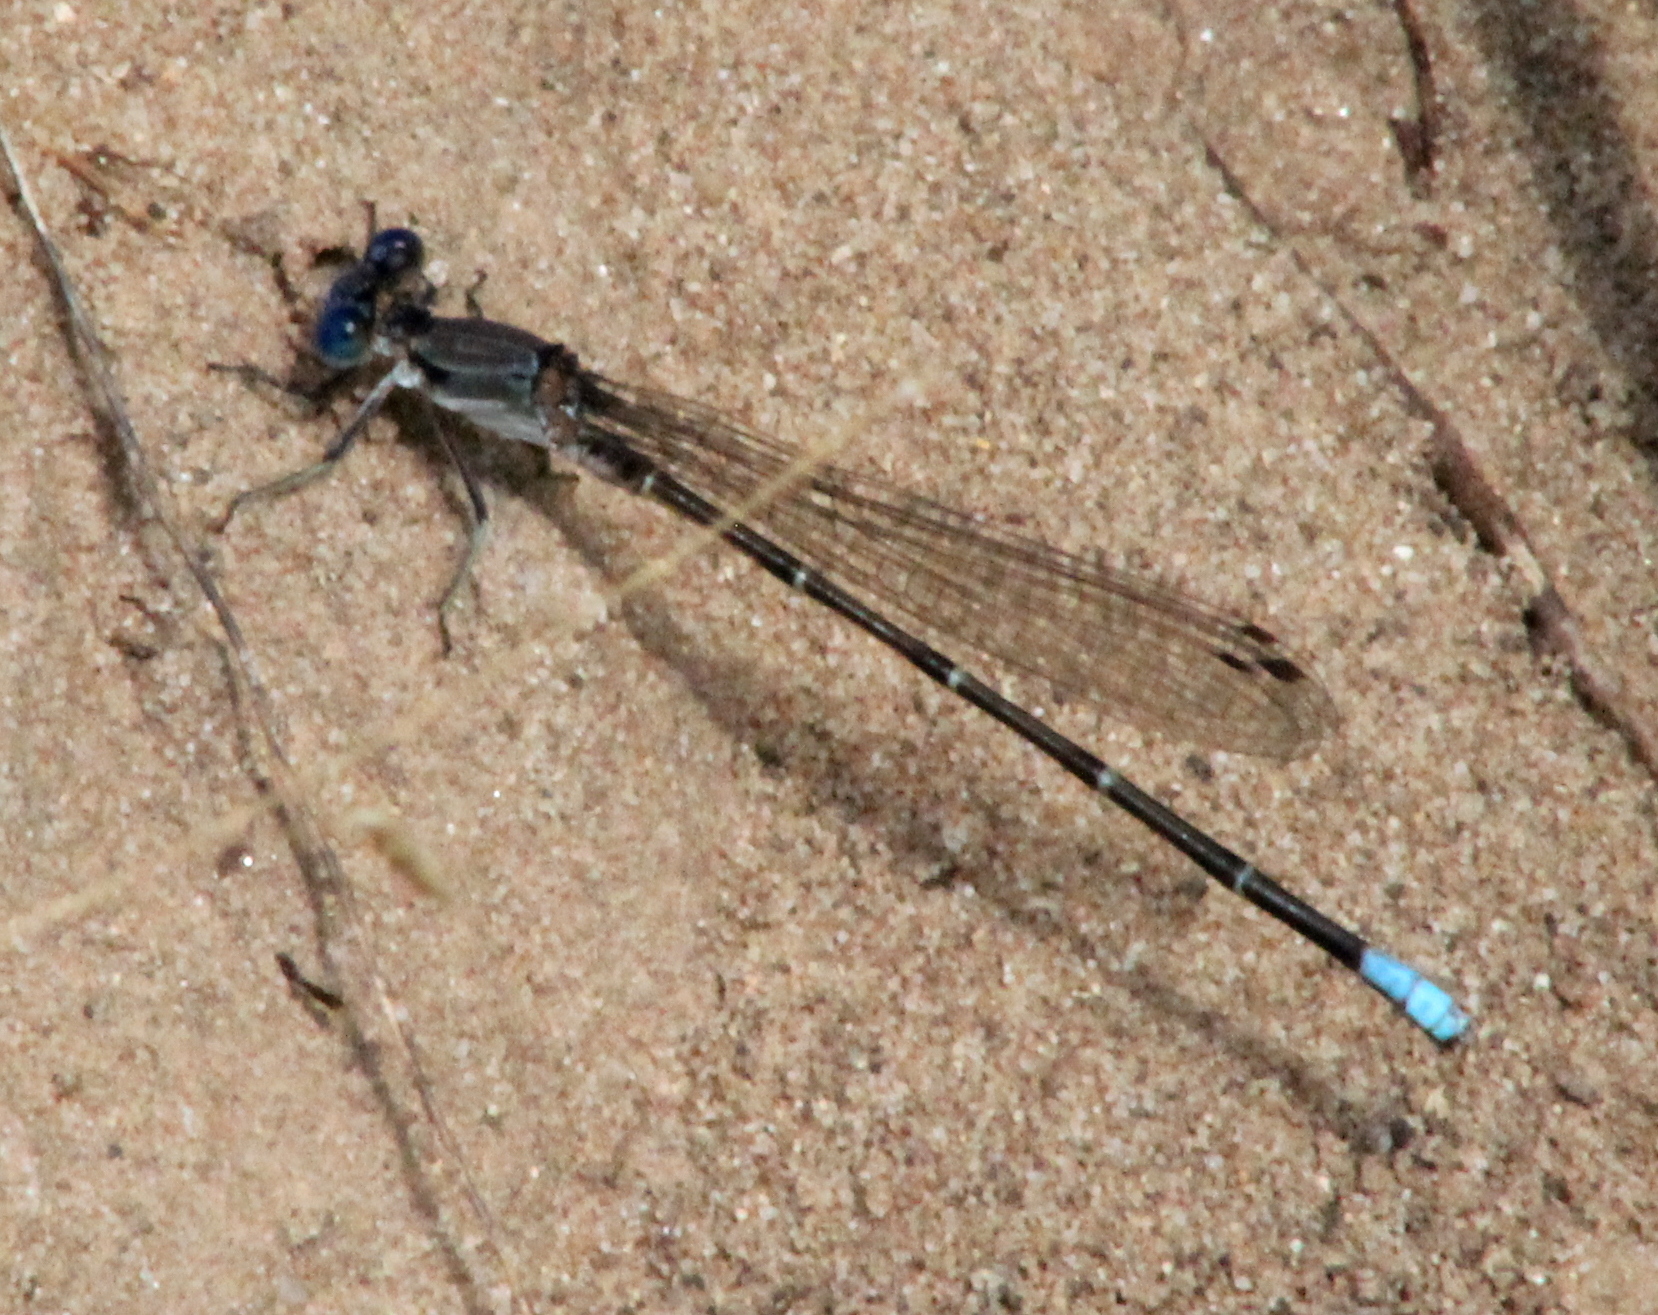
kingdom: Animalia
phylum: Arthropoda
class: Insecta
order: Odonata
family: Coenagrionidae
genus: Argia
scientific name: Argia apicalis
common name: Blue-fronted dancer
